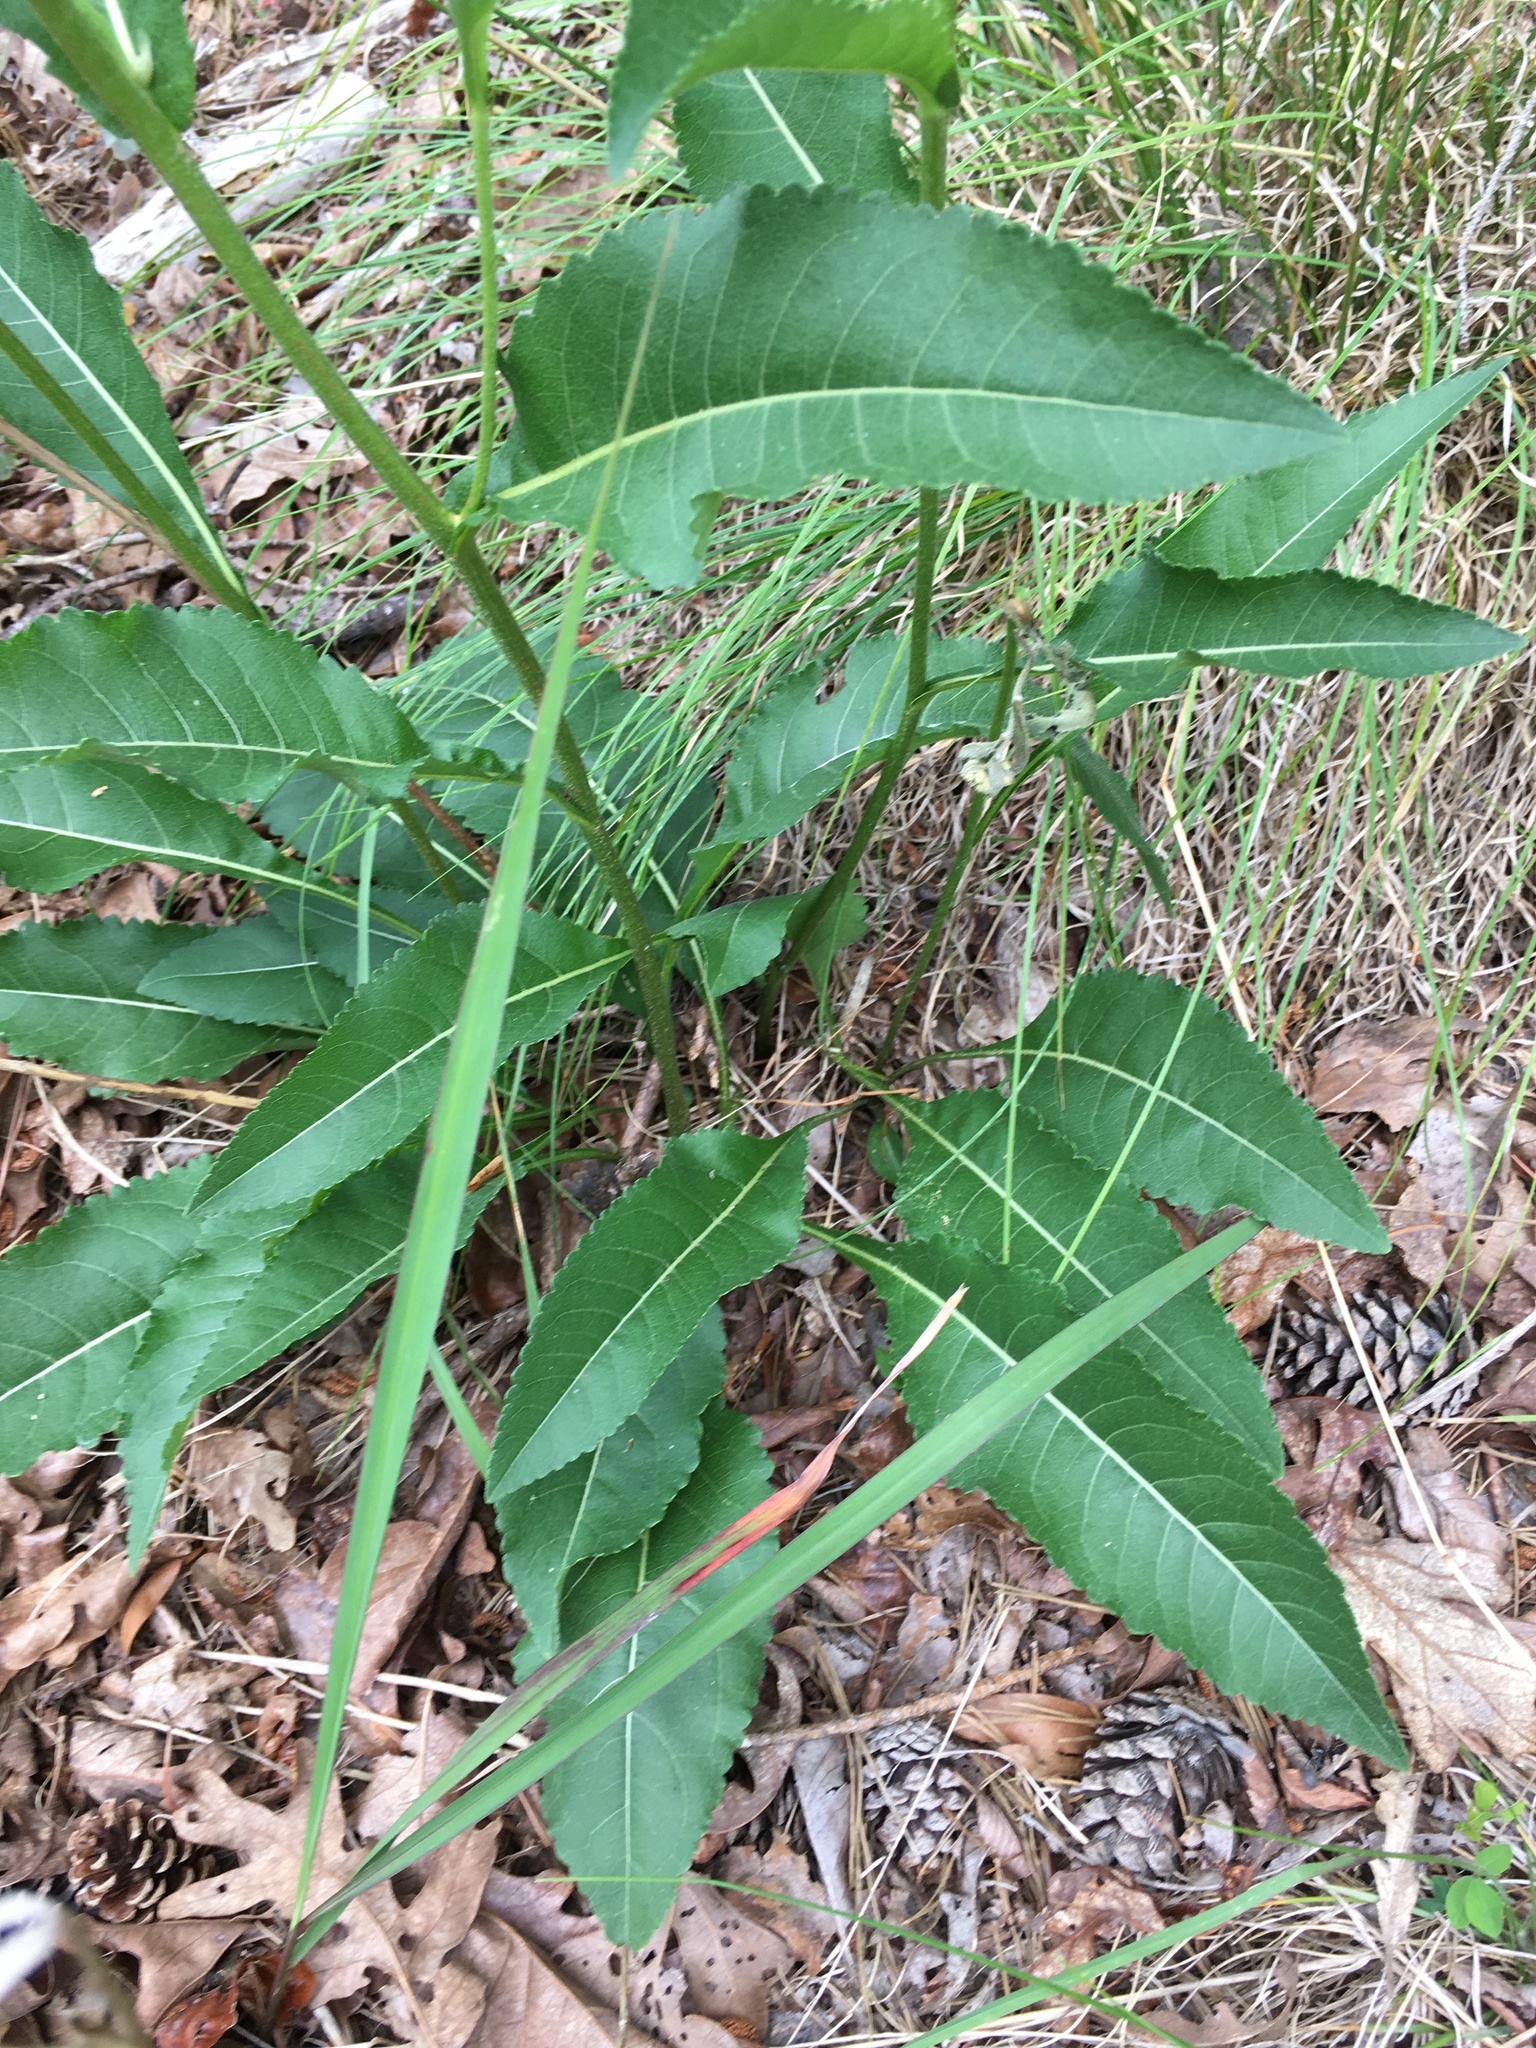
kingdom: Plantae
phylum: Tracheophyta
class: Magnoliopsida
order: Asterales
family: Asteraceae
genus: Parthenium
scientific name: Parthenium integrifolium
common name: American feverfew
